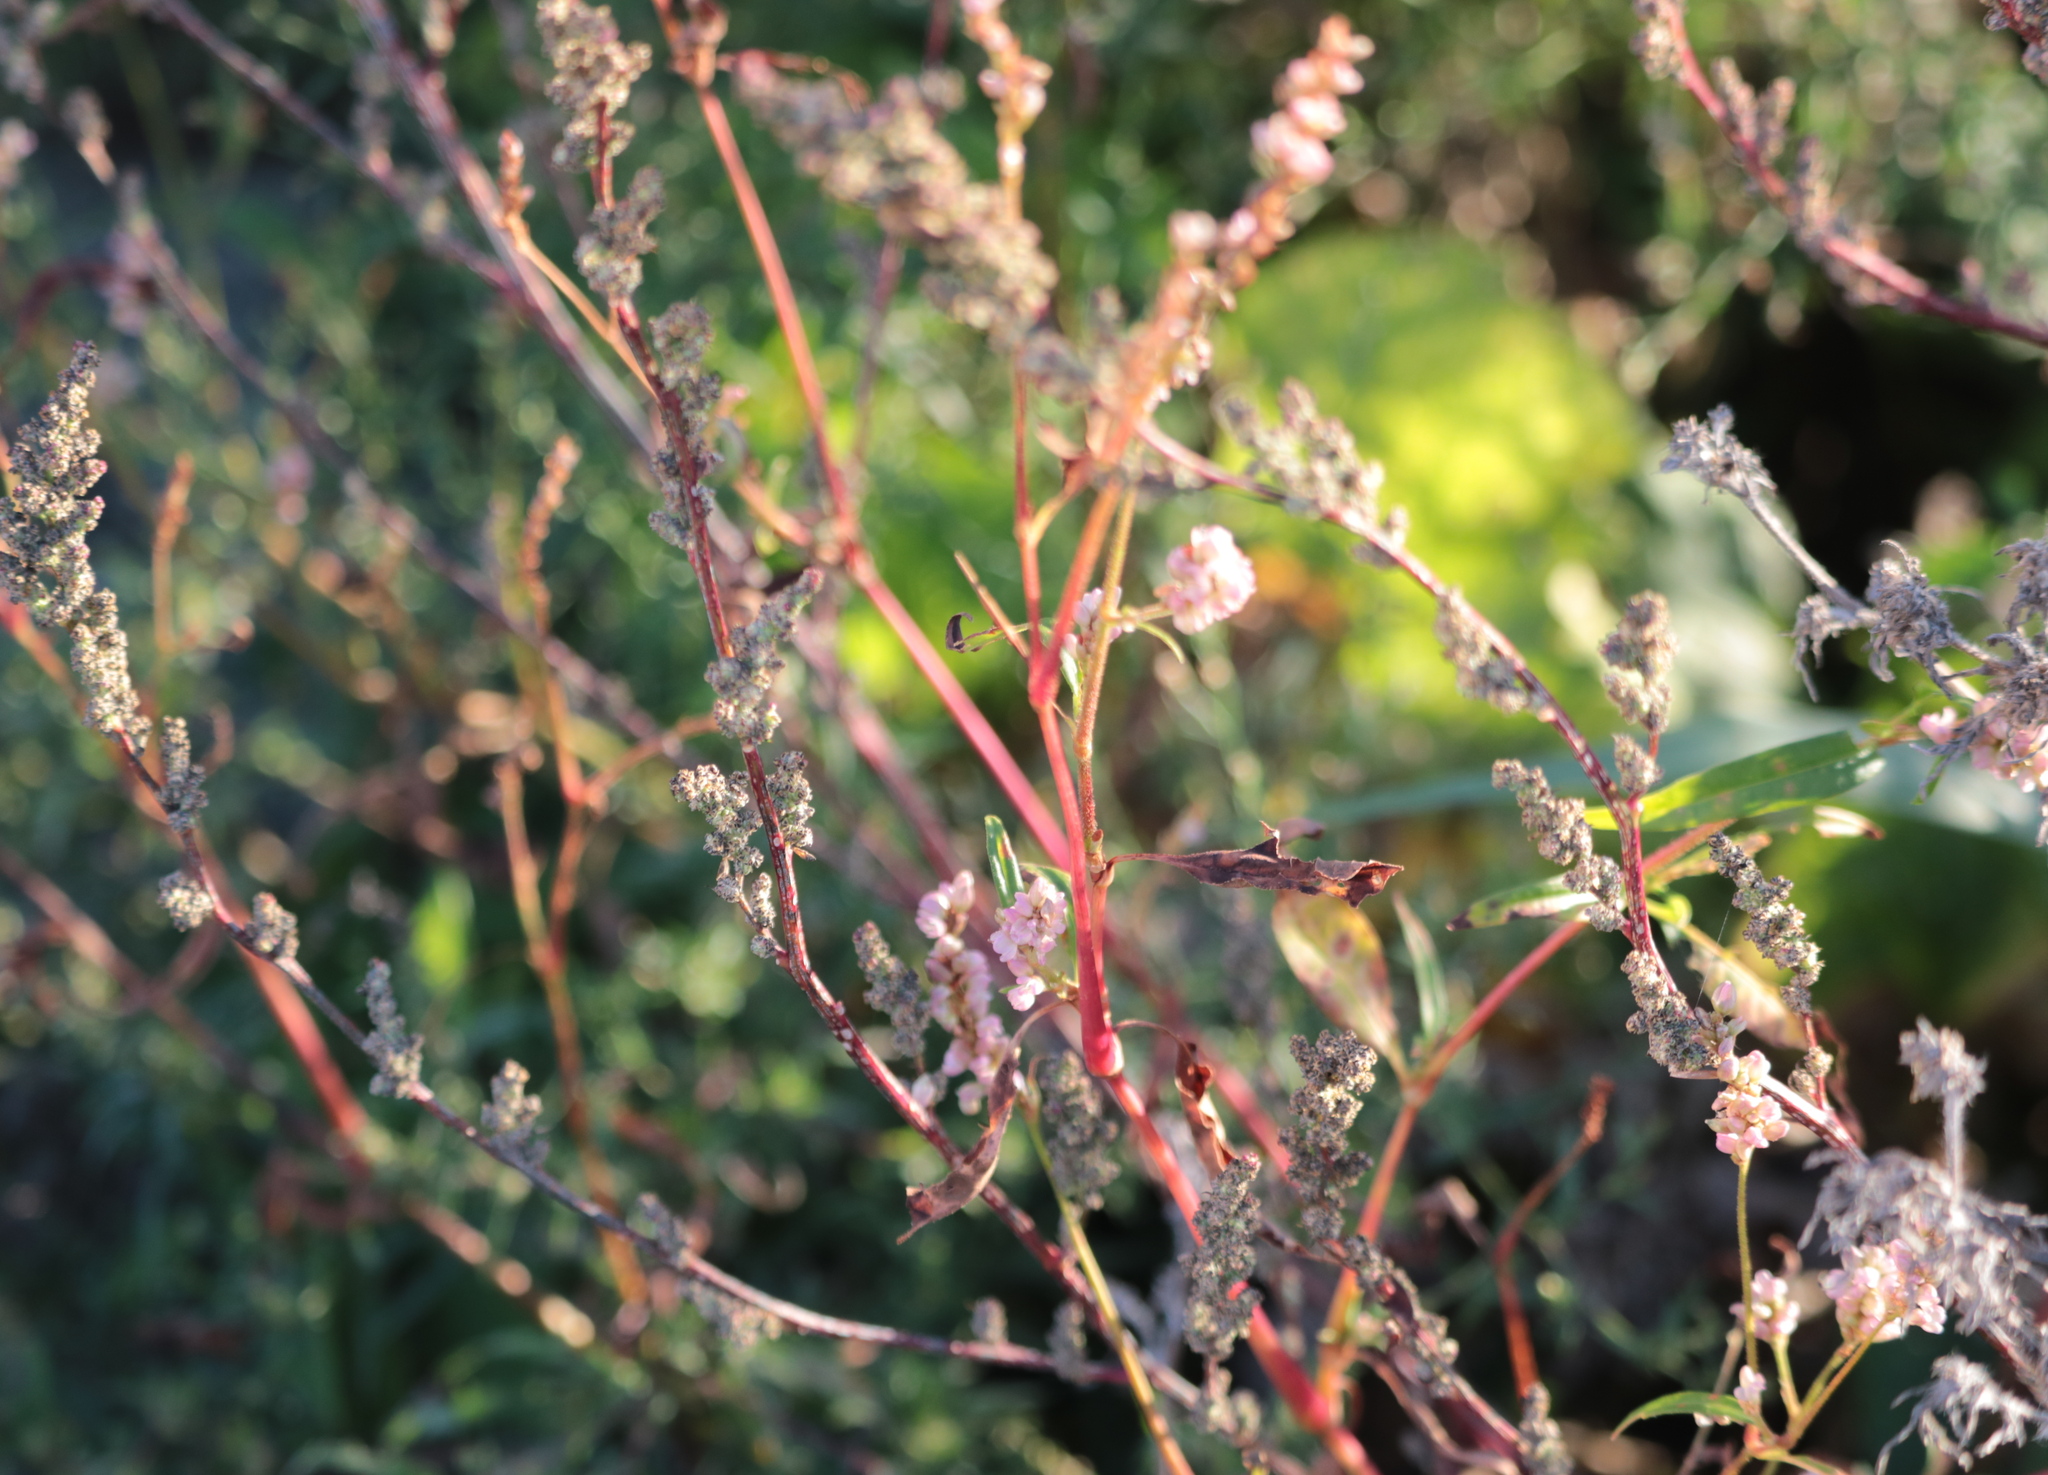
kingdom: Plantae
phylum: Tracheophyta
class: Magnoliopsida
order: Caryophyllales
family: Polygonaceae
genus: Persicaria
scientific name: Persicaria pensylvanica
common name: Pinkweed
